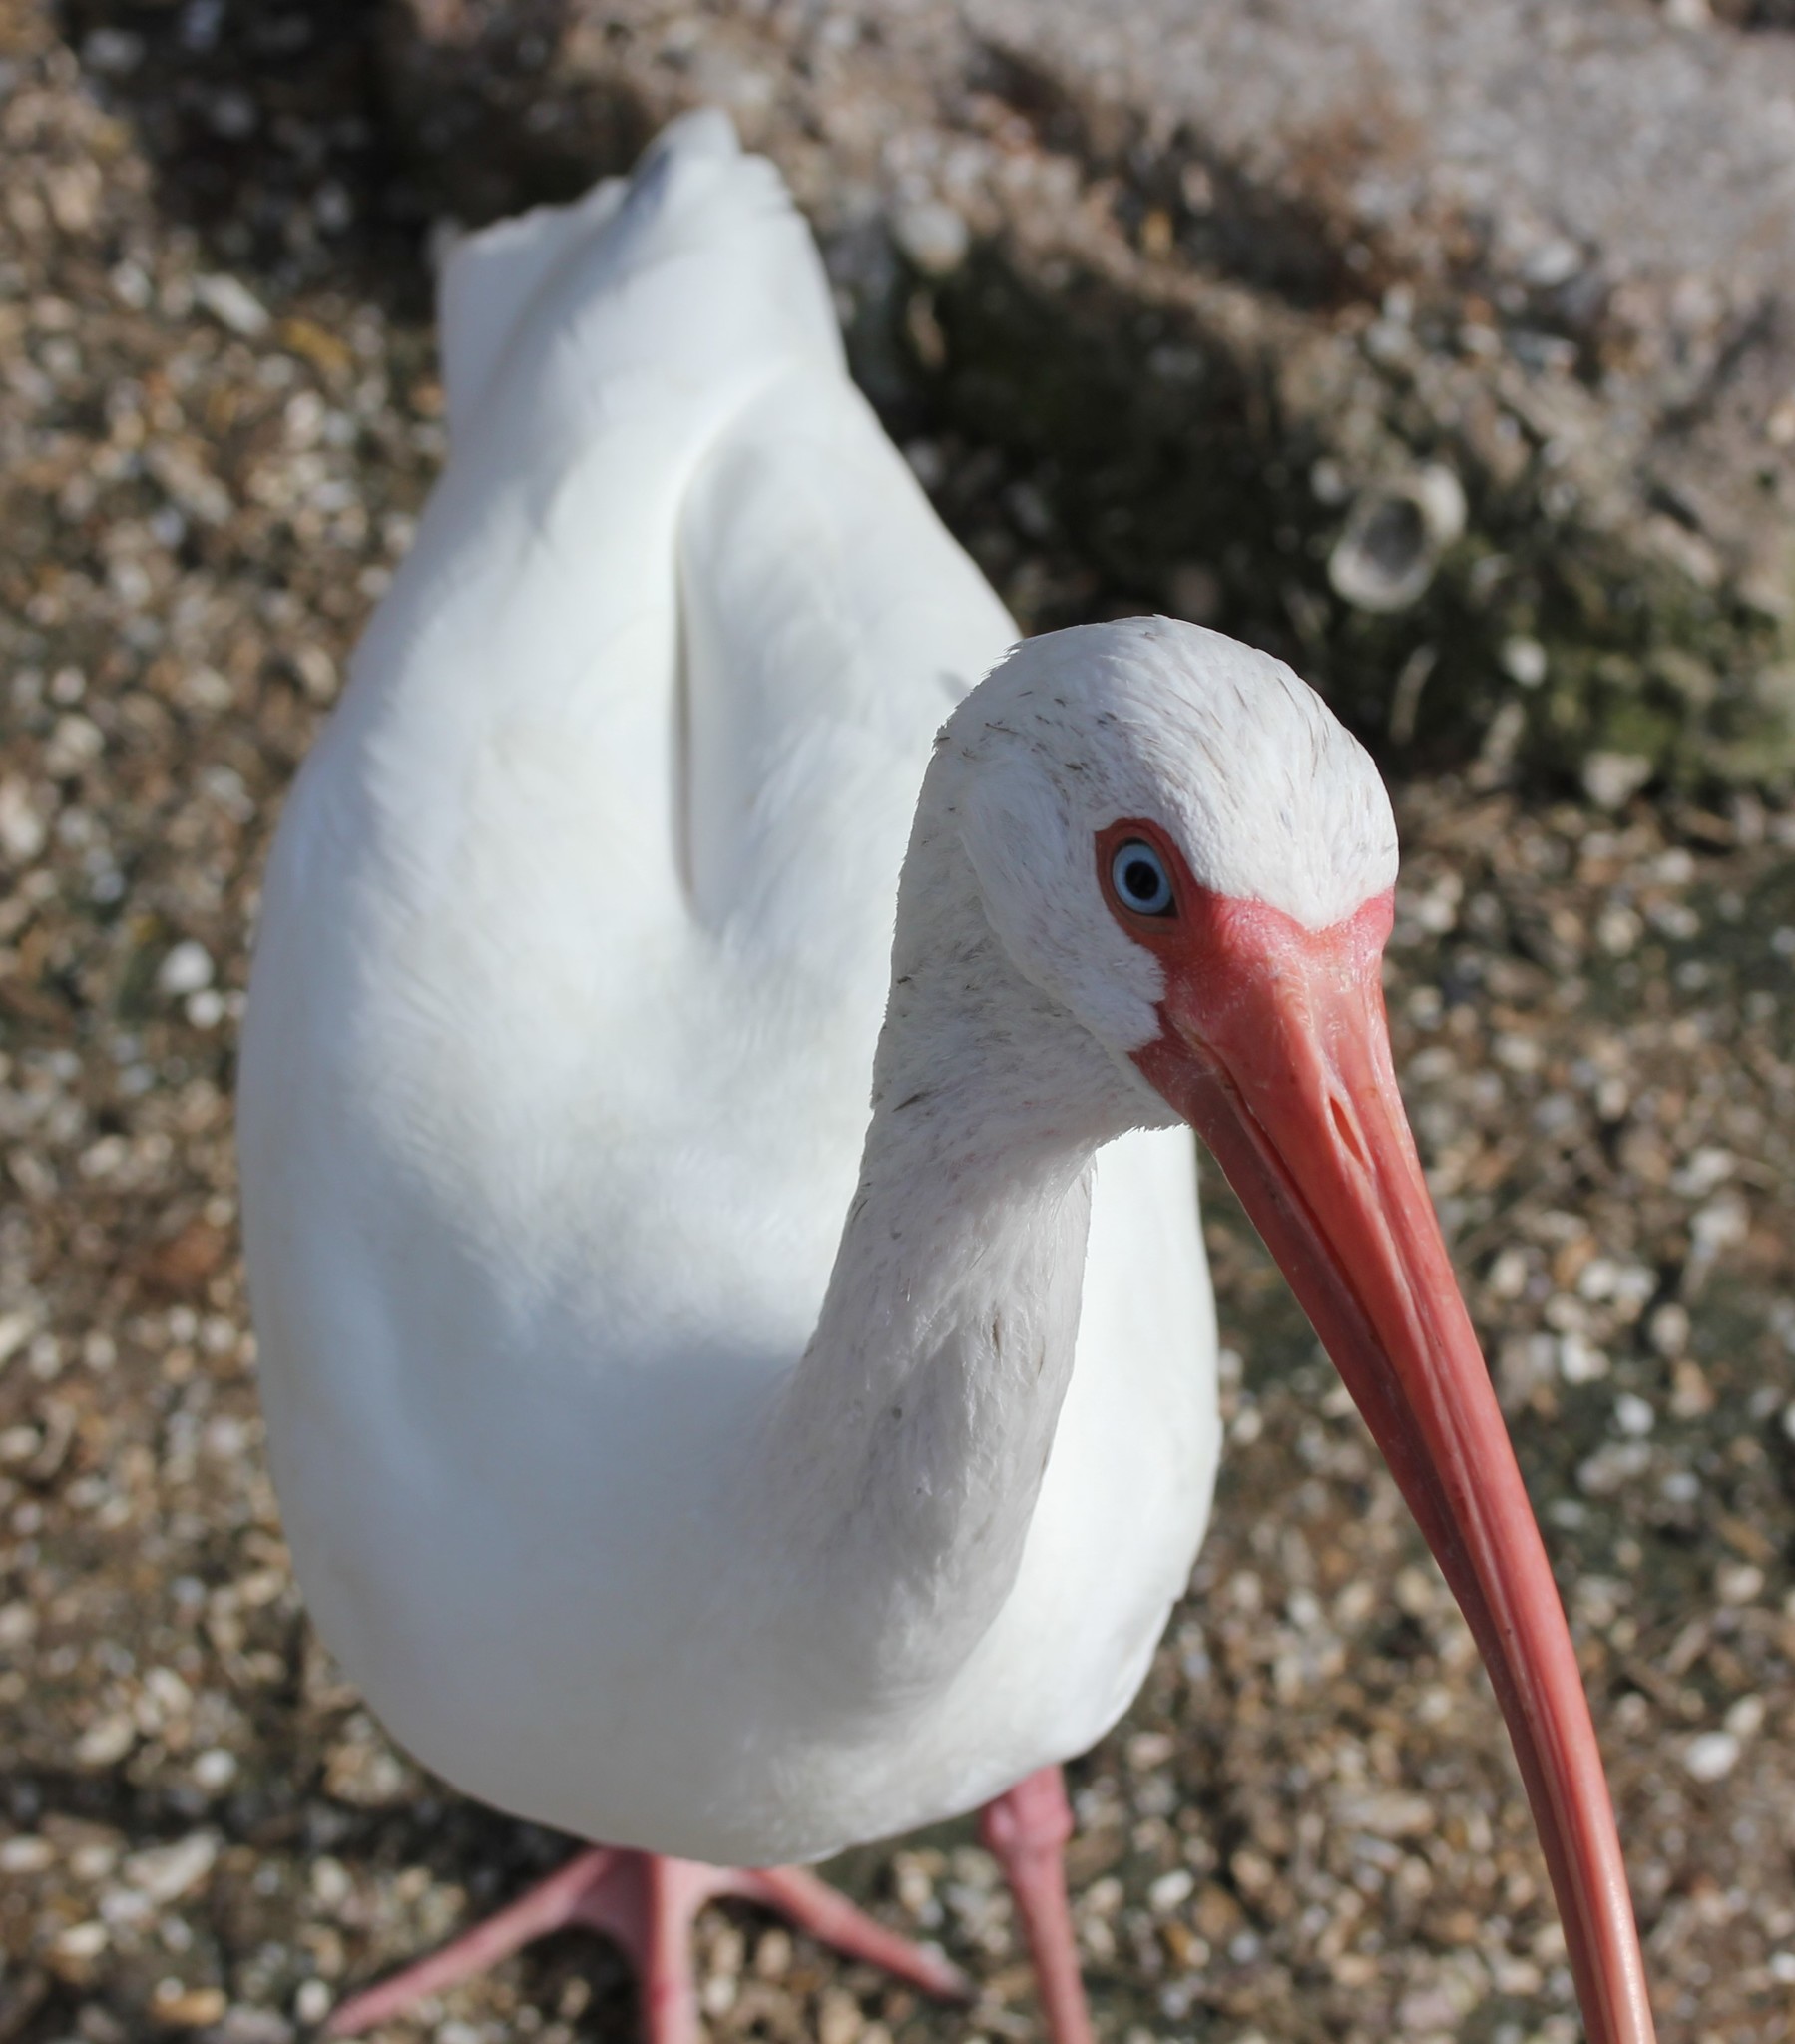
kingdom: Animalia
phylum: Chordata
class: Aves
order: Pelecaniformes
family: Threskiornithidae
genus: Eudocimus
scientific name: Eudocimus albus
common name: White ibis
